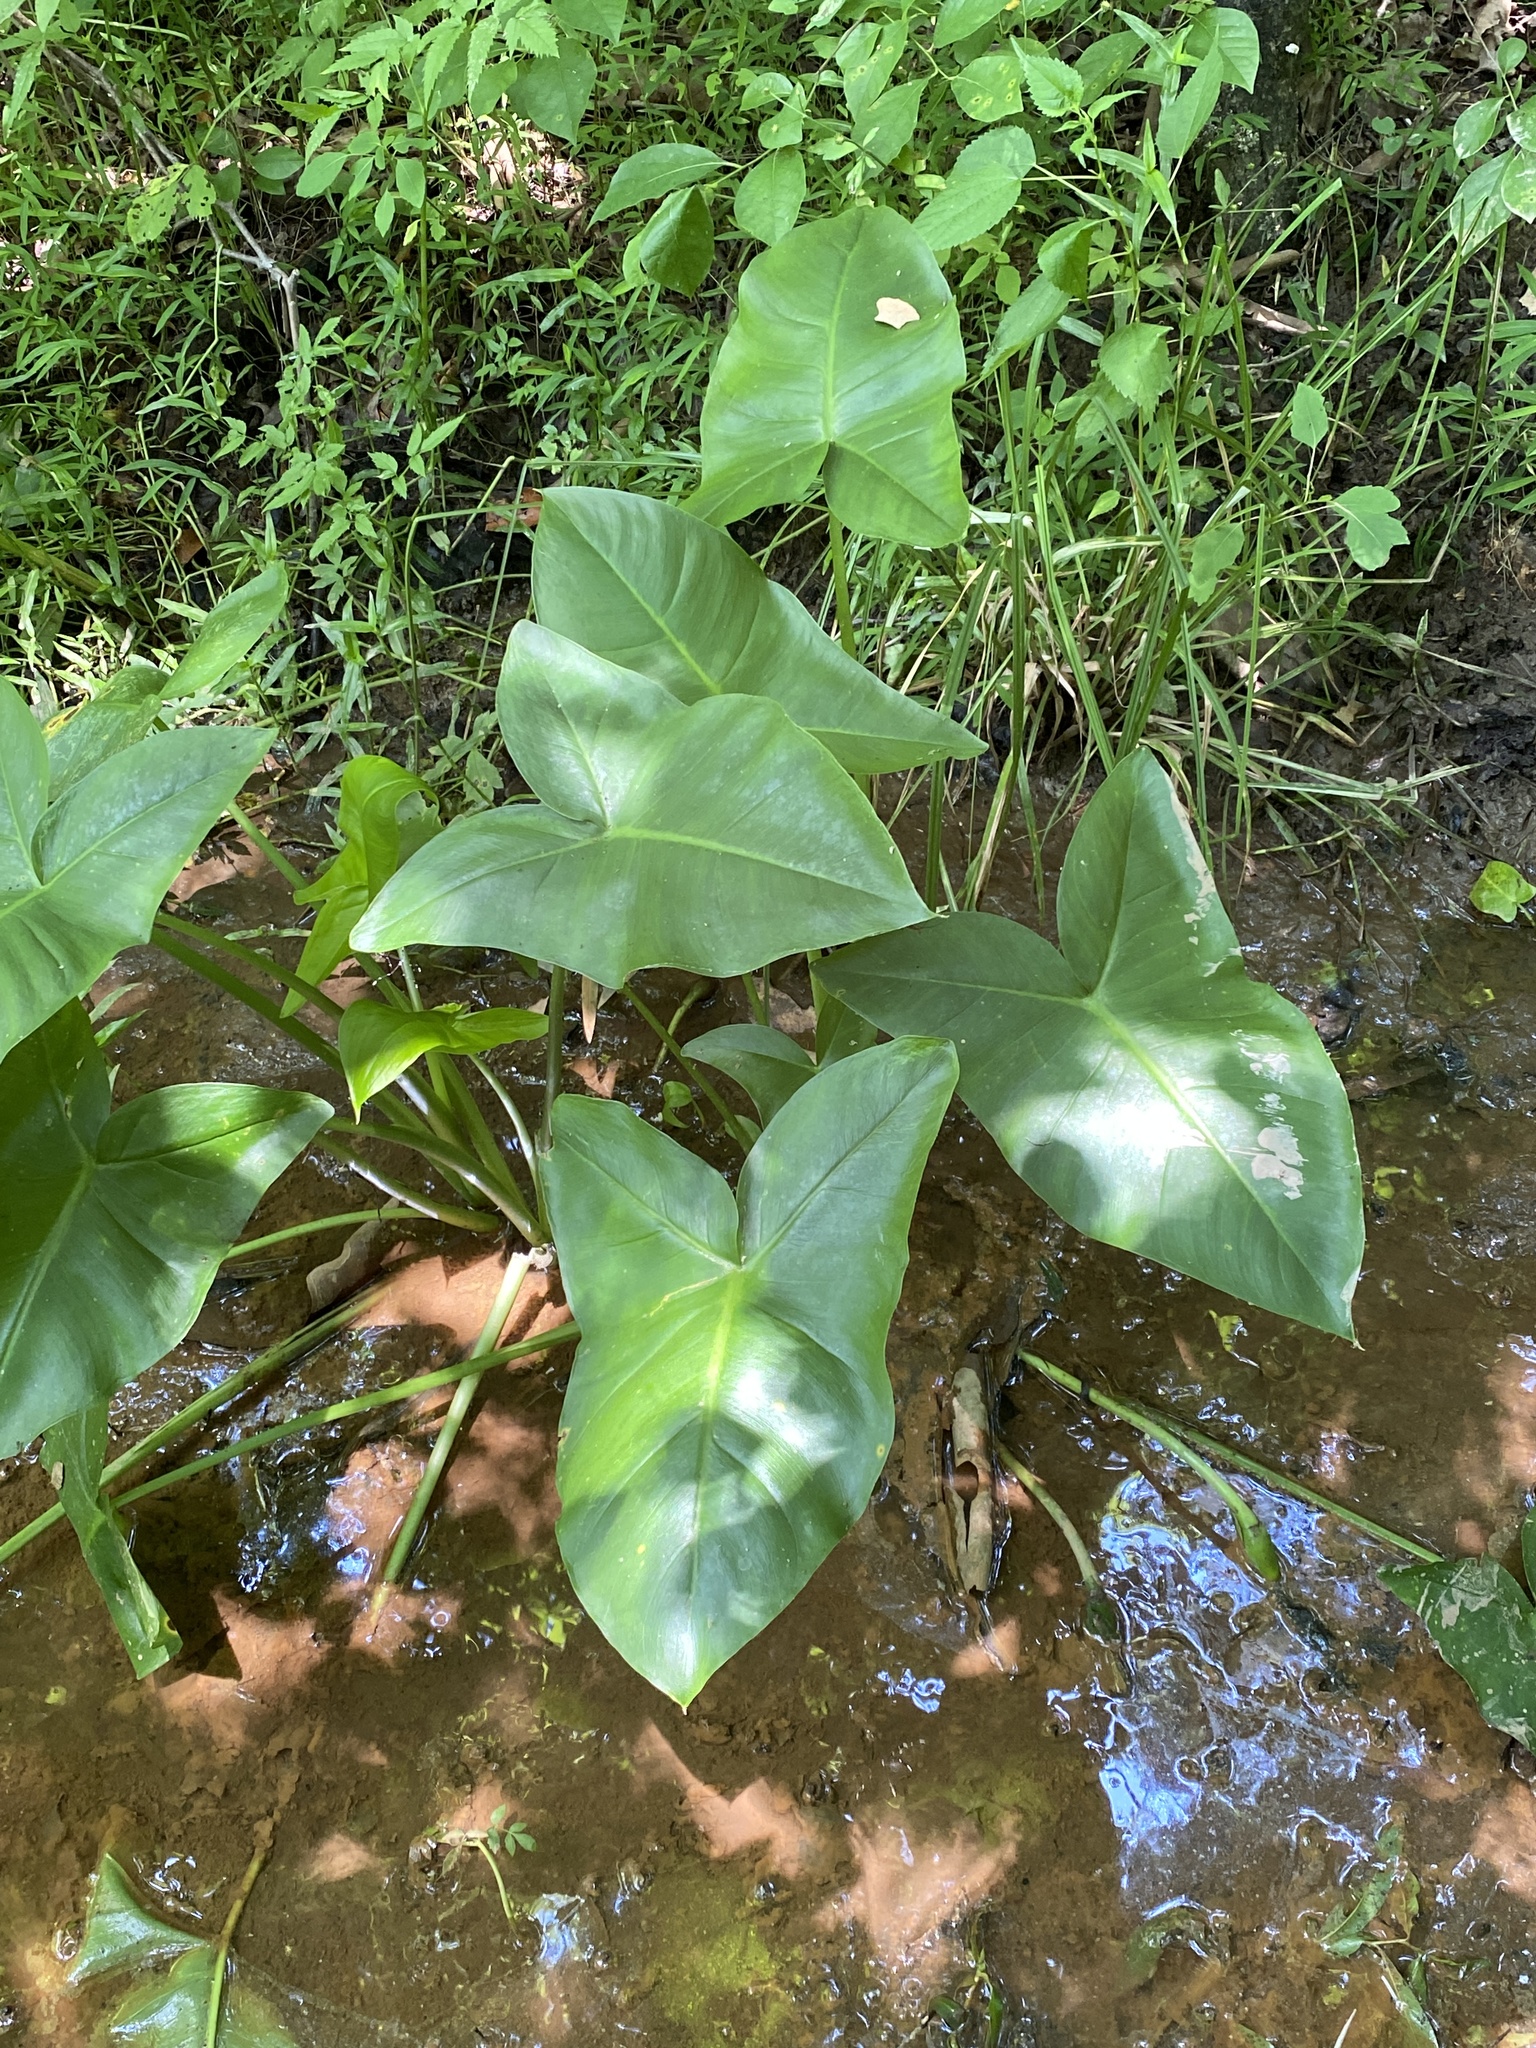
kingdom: Plantae
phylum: Tracheophyta
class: Liliopsida
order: Alismatales
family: Araceae
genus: Peltandra
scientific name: Peltandra virginica
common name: Arrow arum
